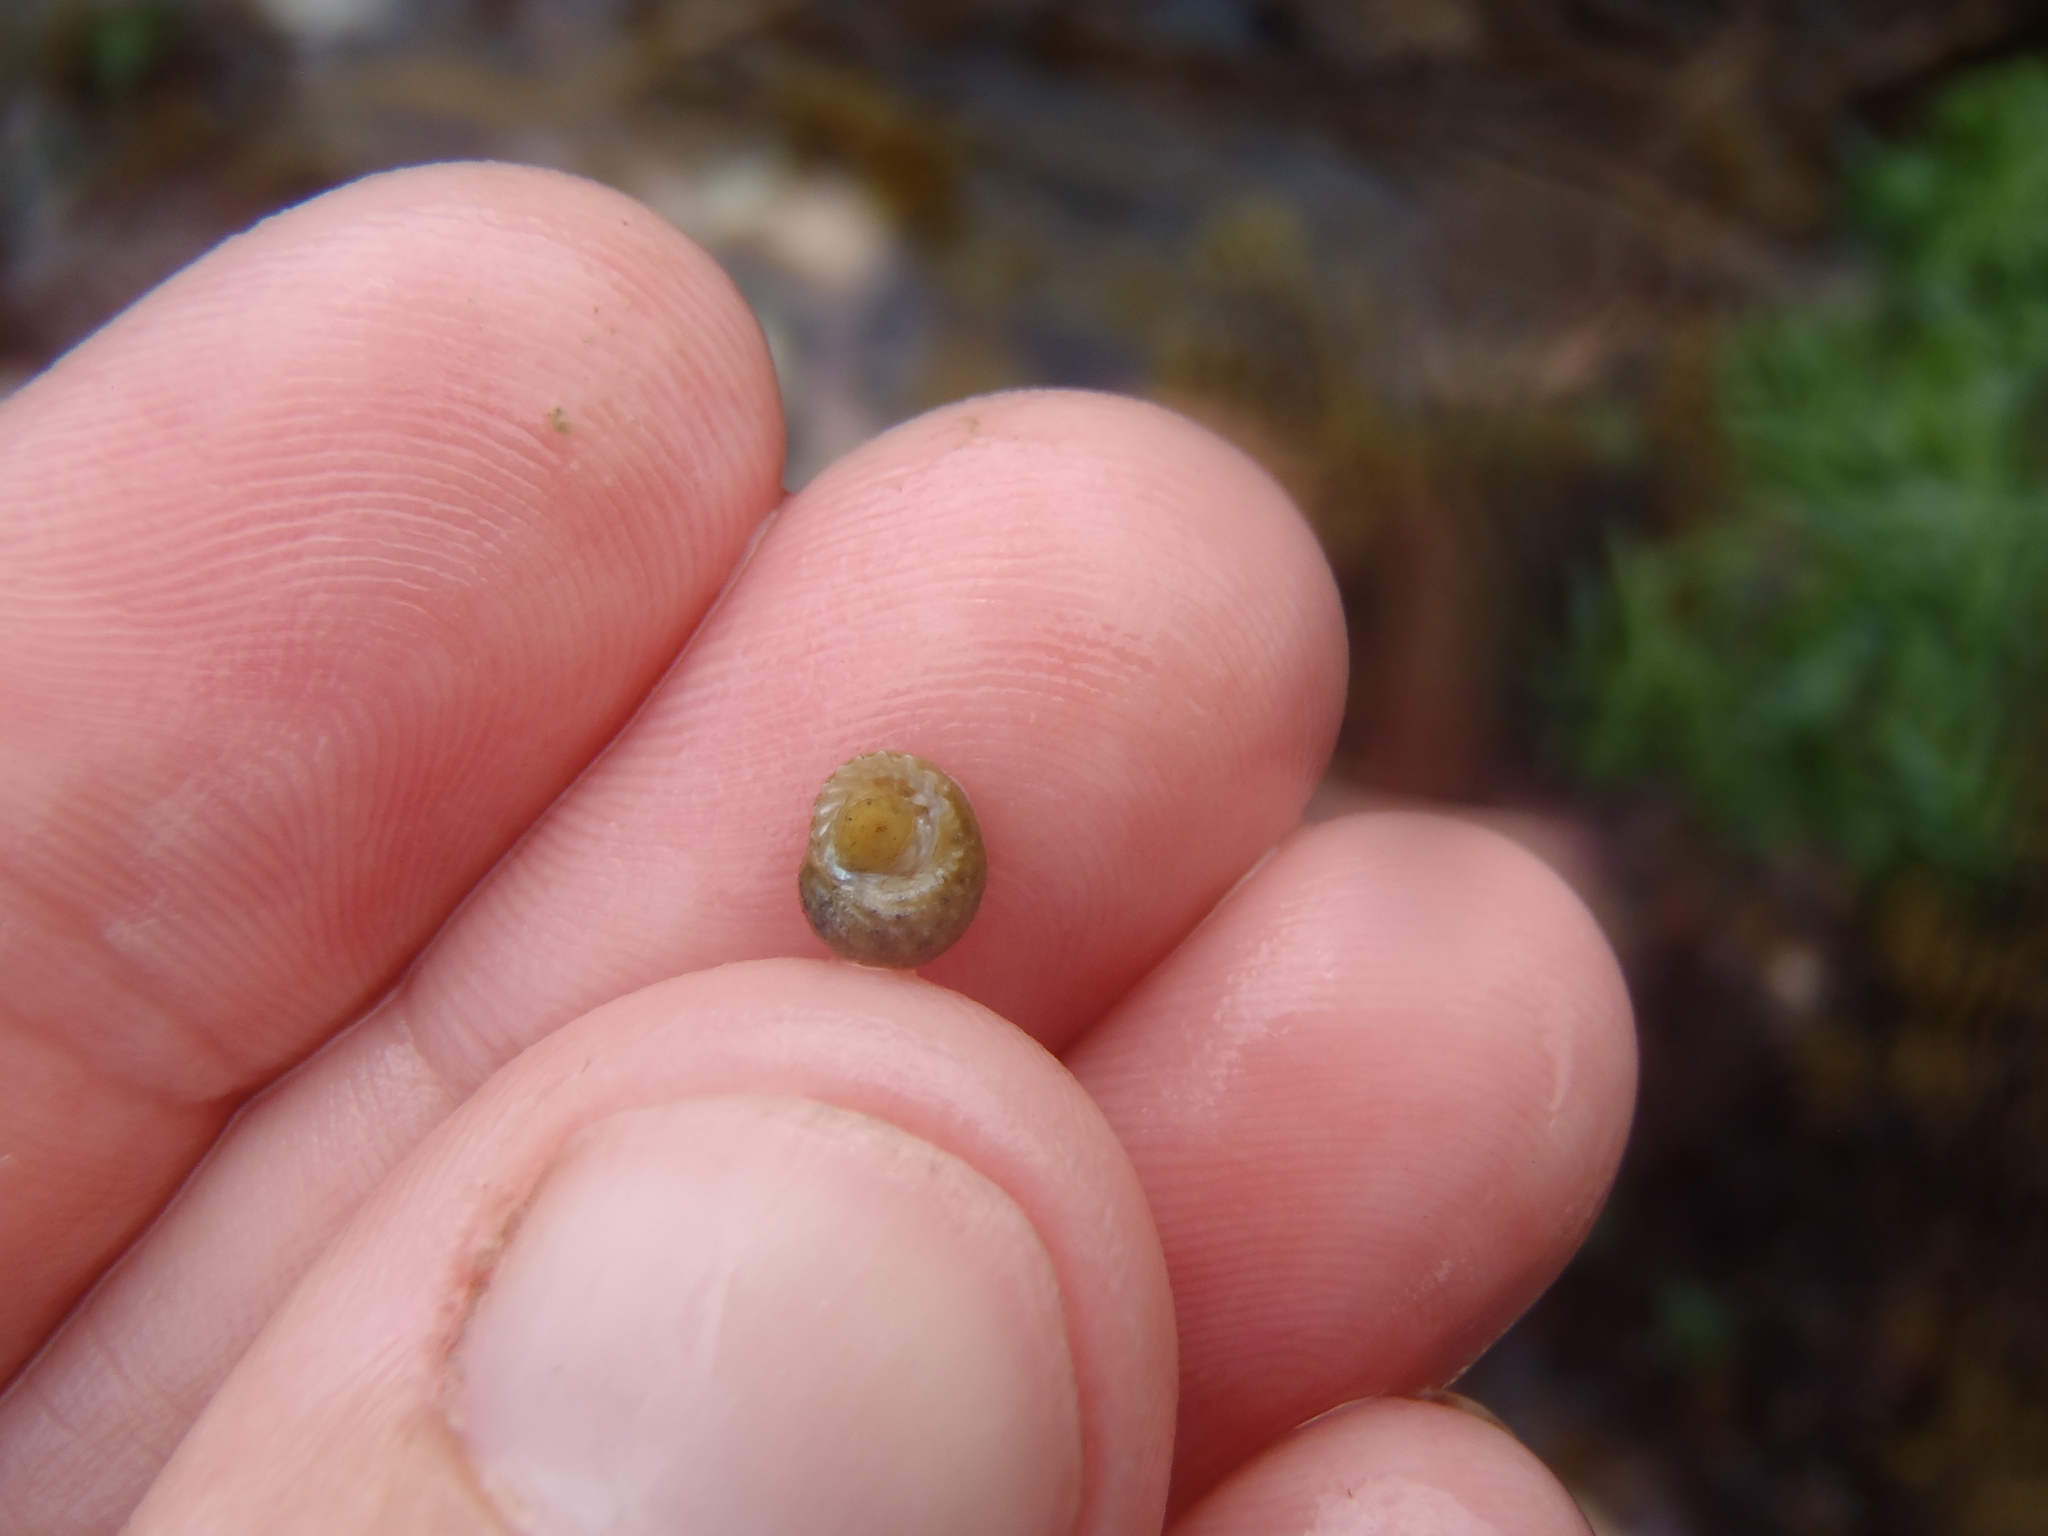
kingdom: Animalia
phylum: Echinodermata
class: Asteroidea
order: Valvatida
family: Asterinidae
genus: Patiriella
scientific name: Patiriella regularis
